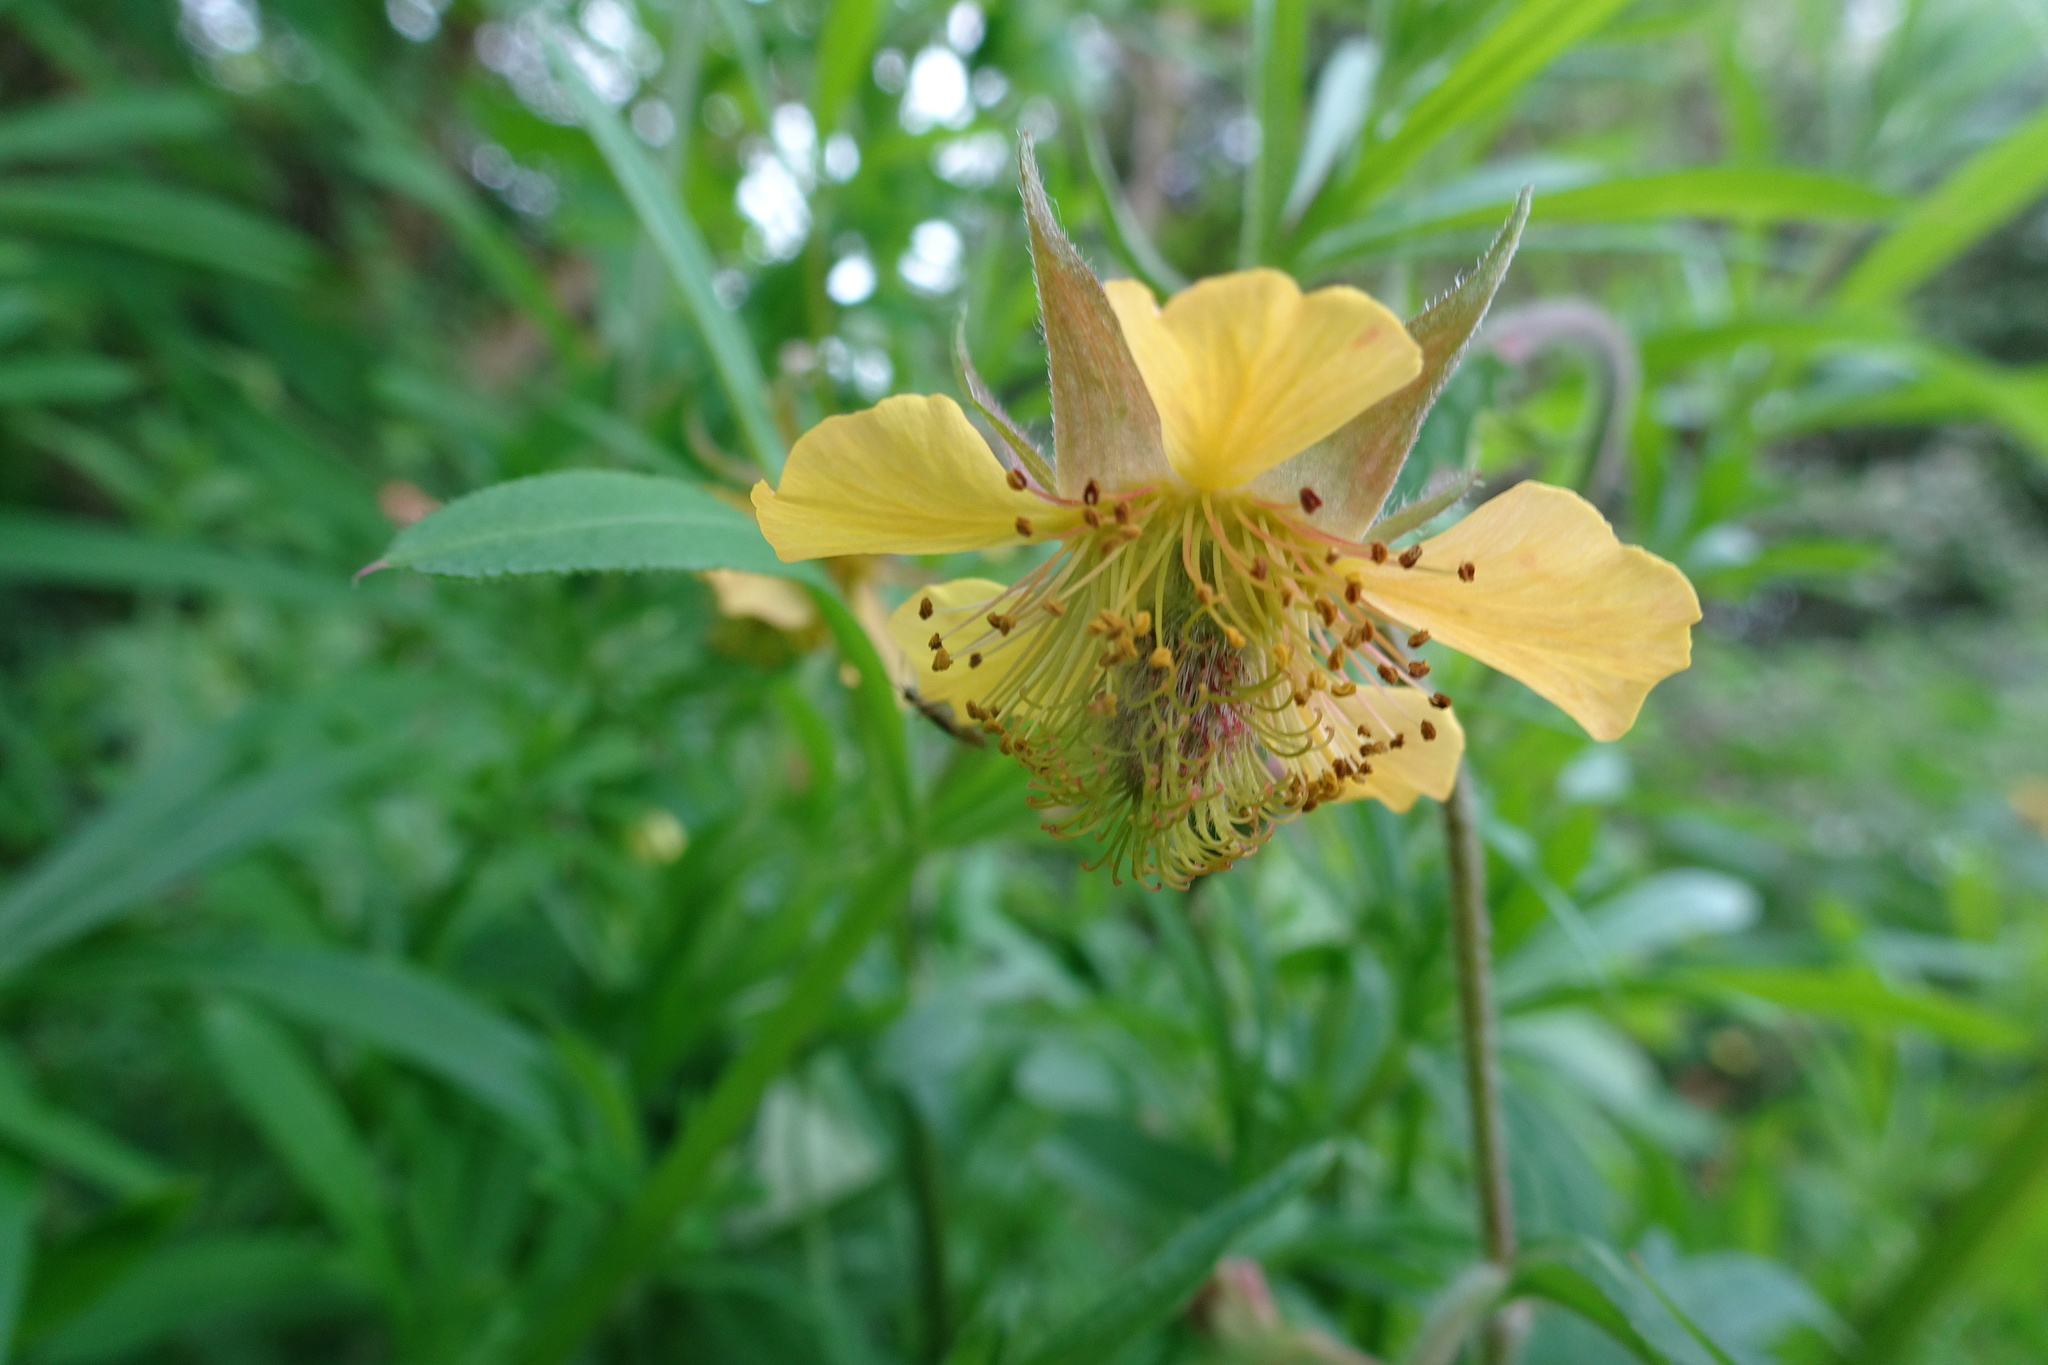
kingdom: Plantae
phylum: Tracheophyta
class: Magnoliopsida
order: Rosales
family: Rosaceae
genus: Geum
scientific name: Geum intermedium
